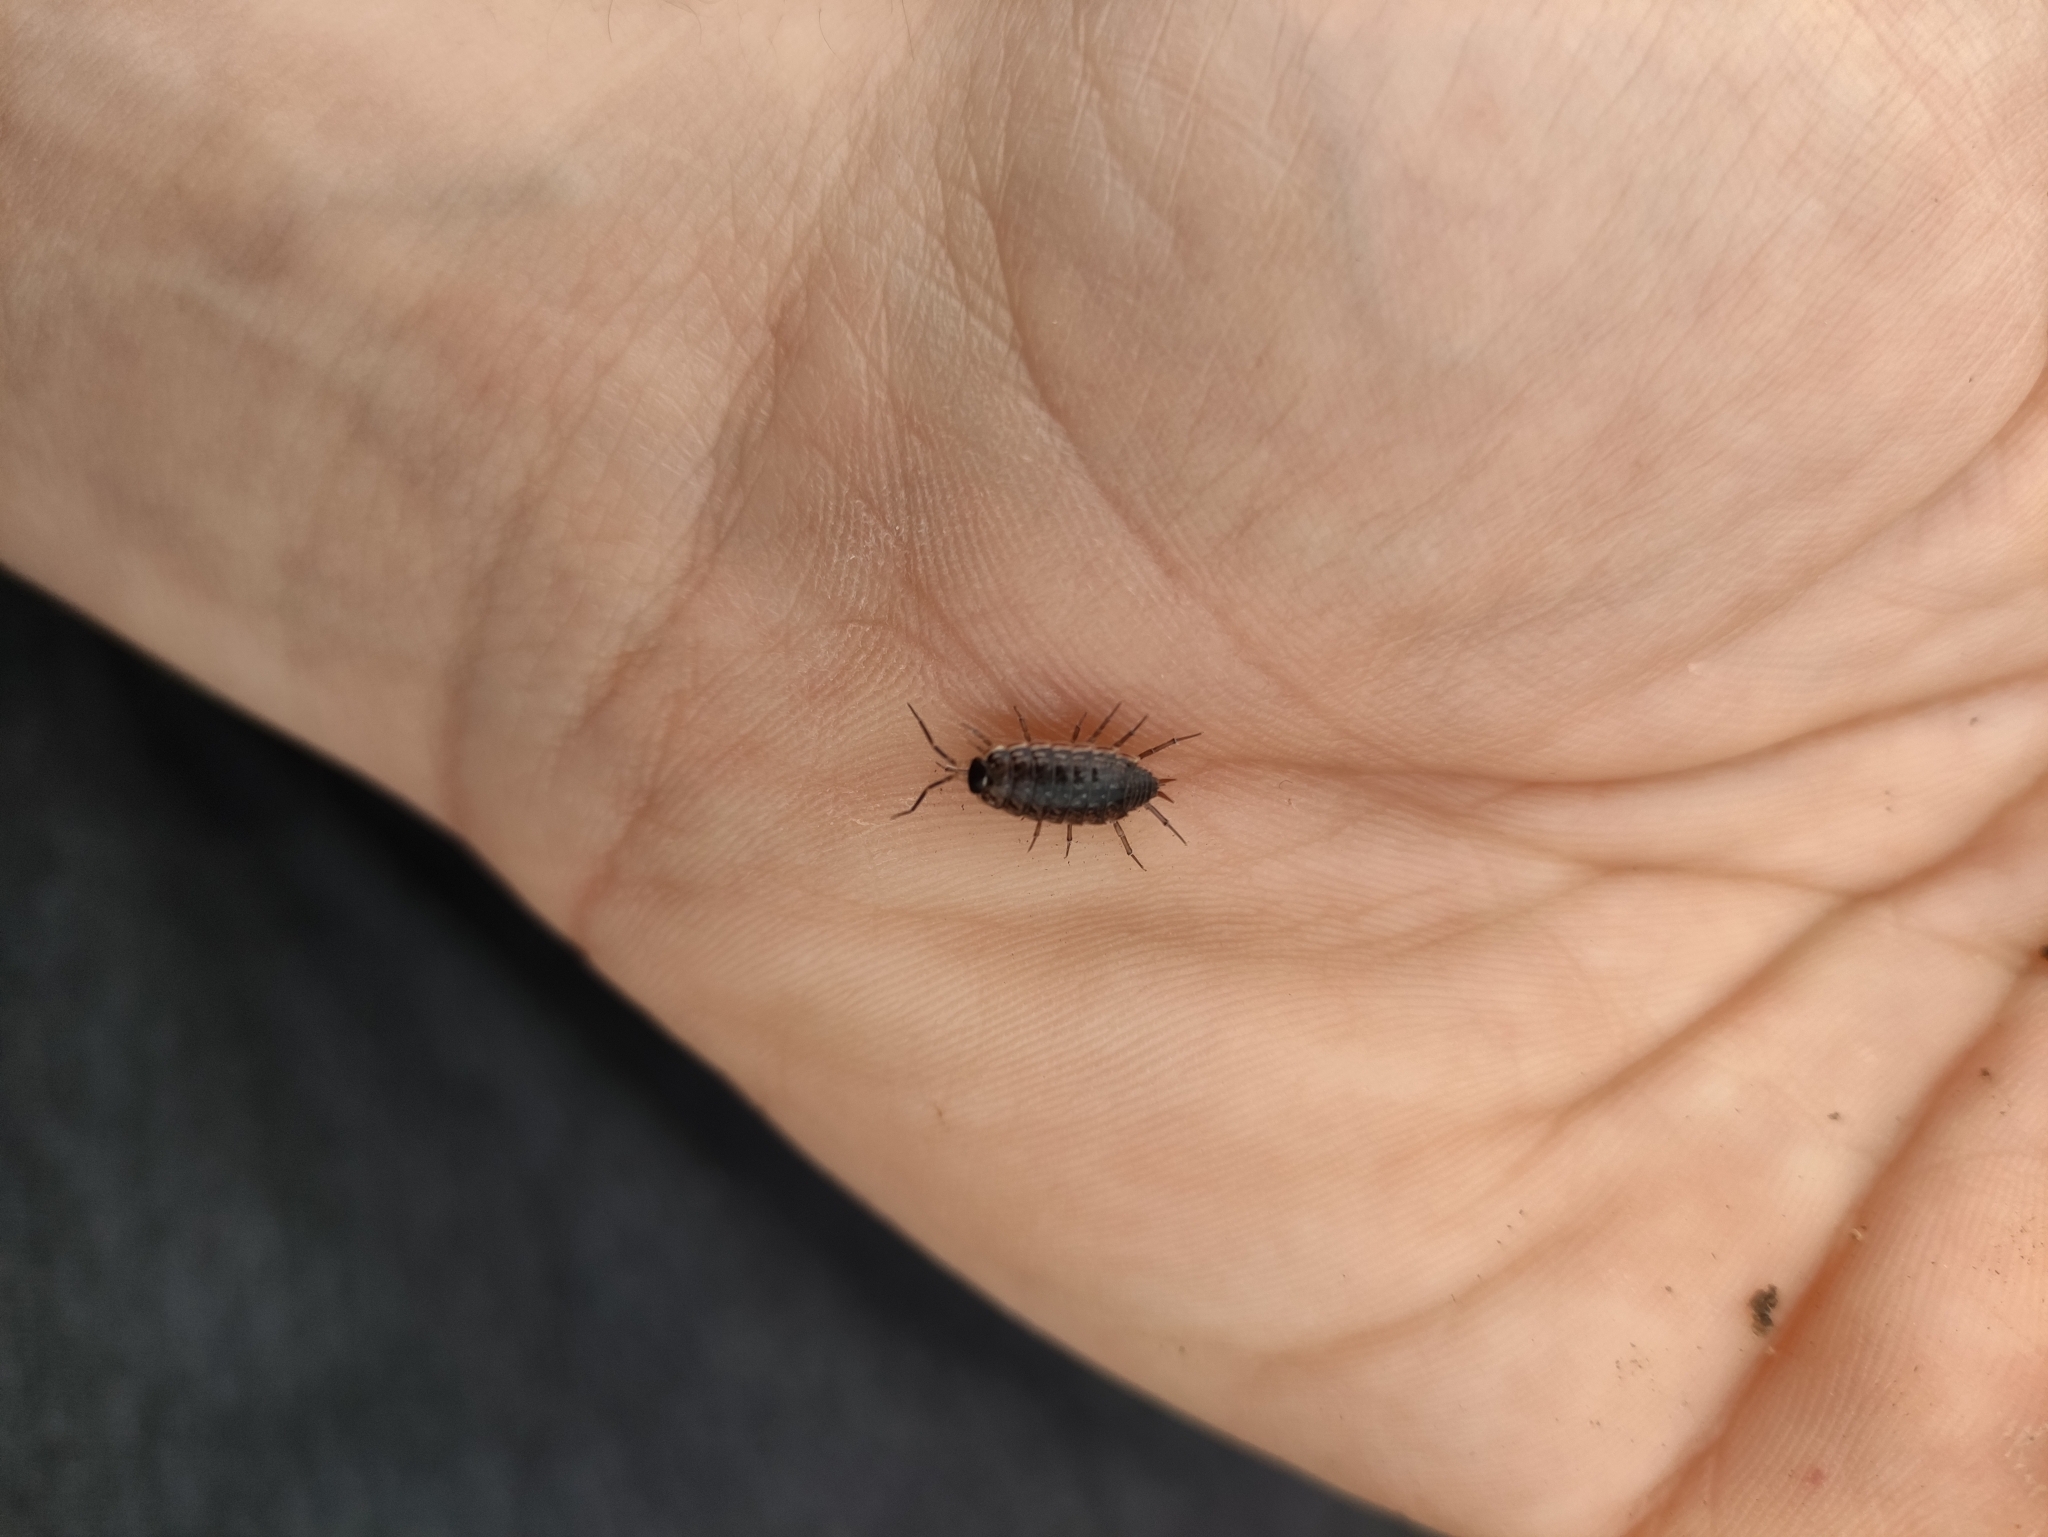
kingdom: Animalia
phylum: Arthropoda
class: Malacostraca
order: Isopoda
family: Philosciidae
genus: Philoscia
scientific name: Philoscia muscorum
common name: Common striped woodlouse
